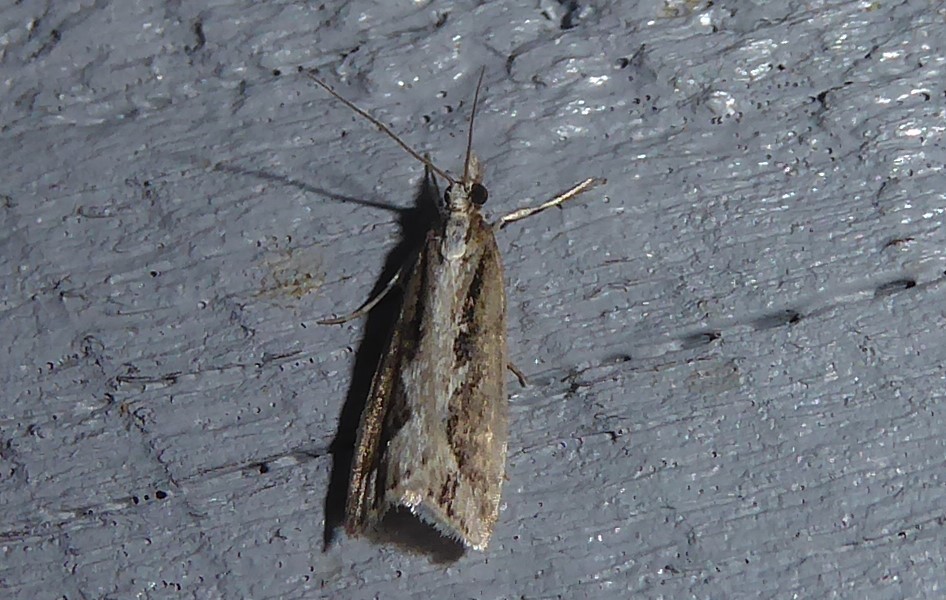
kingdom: Animalia
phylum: Arthropoda
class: Insecta
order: Lepidoptera
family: Crambidae
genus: Eudonia
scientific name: Eudonia steropaea
